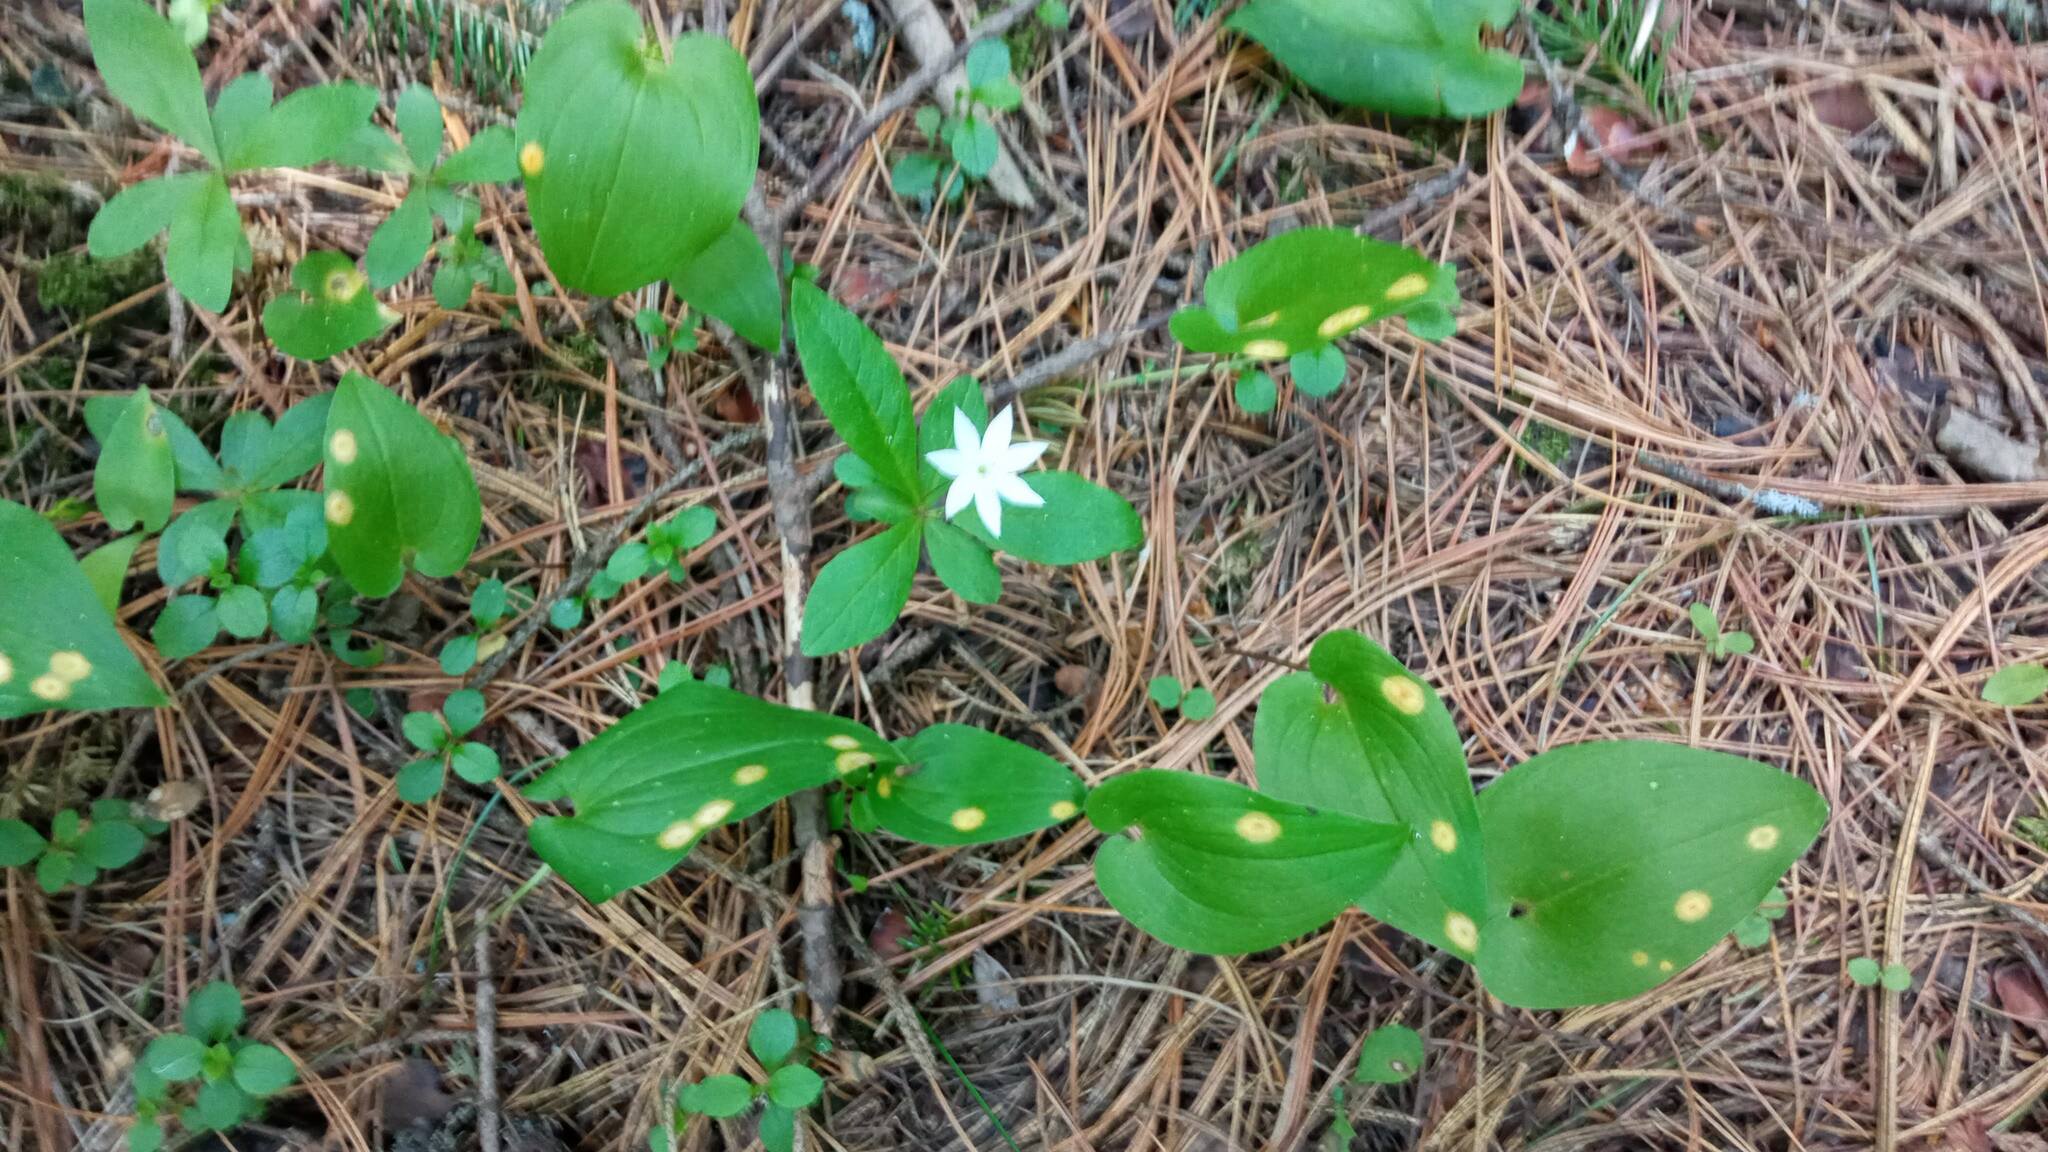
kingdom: Plantae
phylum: Tracheophyta
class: Magnoliopsida
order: Ericales
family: Primulaceae
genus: Lysimachia
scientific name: Lysimachia europaea
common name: Arctic starflower
